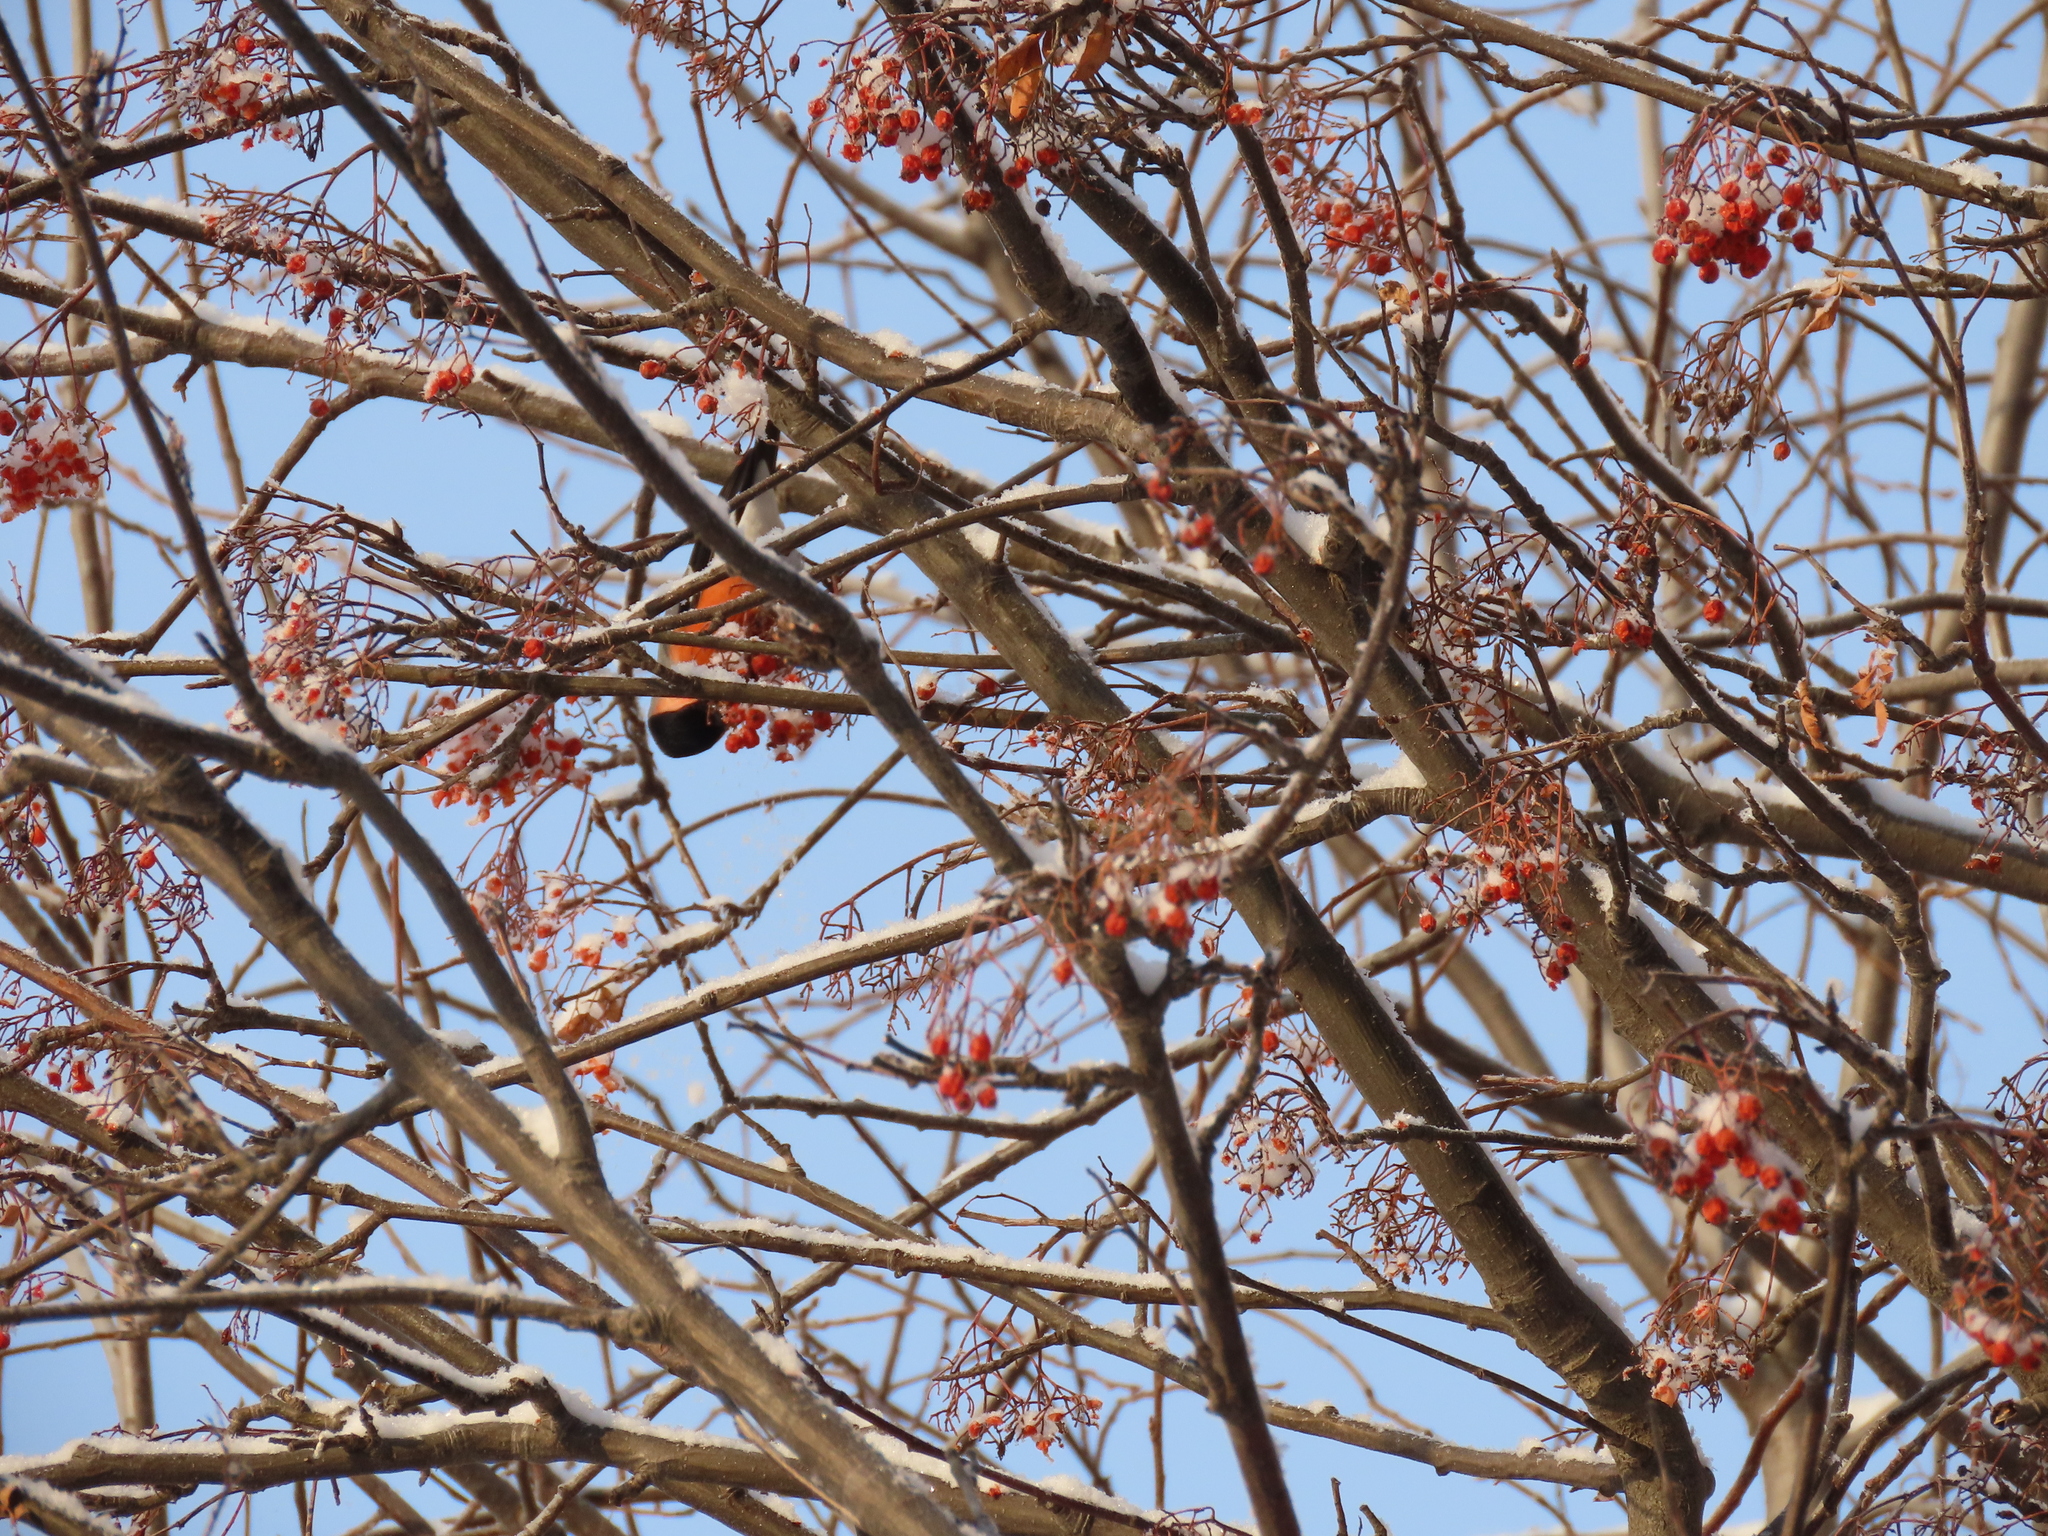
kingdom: Animalia
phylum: Chordata
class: Aves
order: Passeriformes
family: Fringillidae
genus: Pyrrhula
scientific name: Pyrrhula pyrrhula
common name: Eurasian bullfinch
